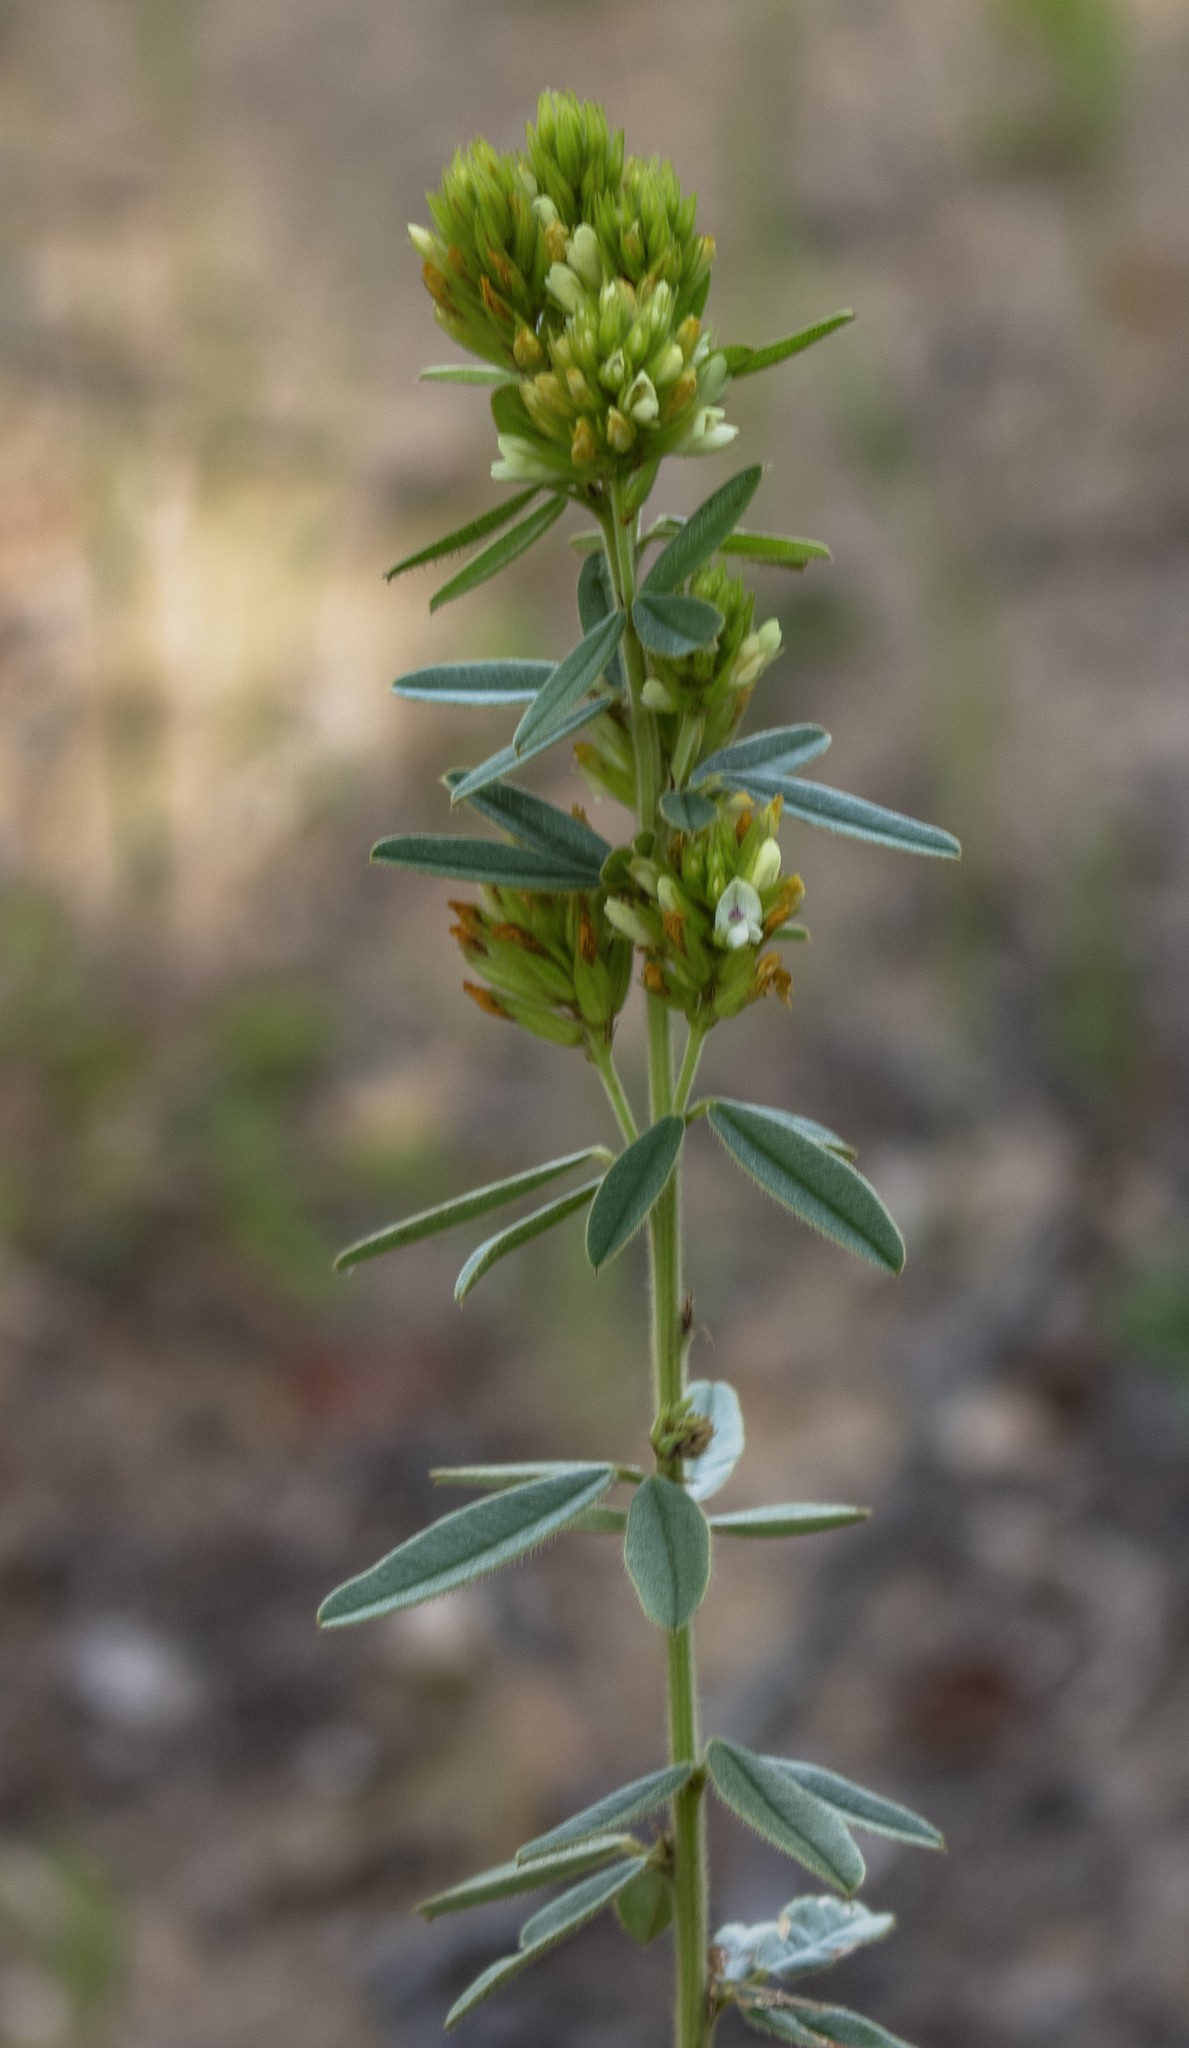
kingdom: Plantae
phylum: Tracheophyta
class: Magnoliopsida
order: Fabales
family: Fabaceae
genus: Lespedeza
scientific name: Lespedeza capitata
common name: Dusty clover
